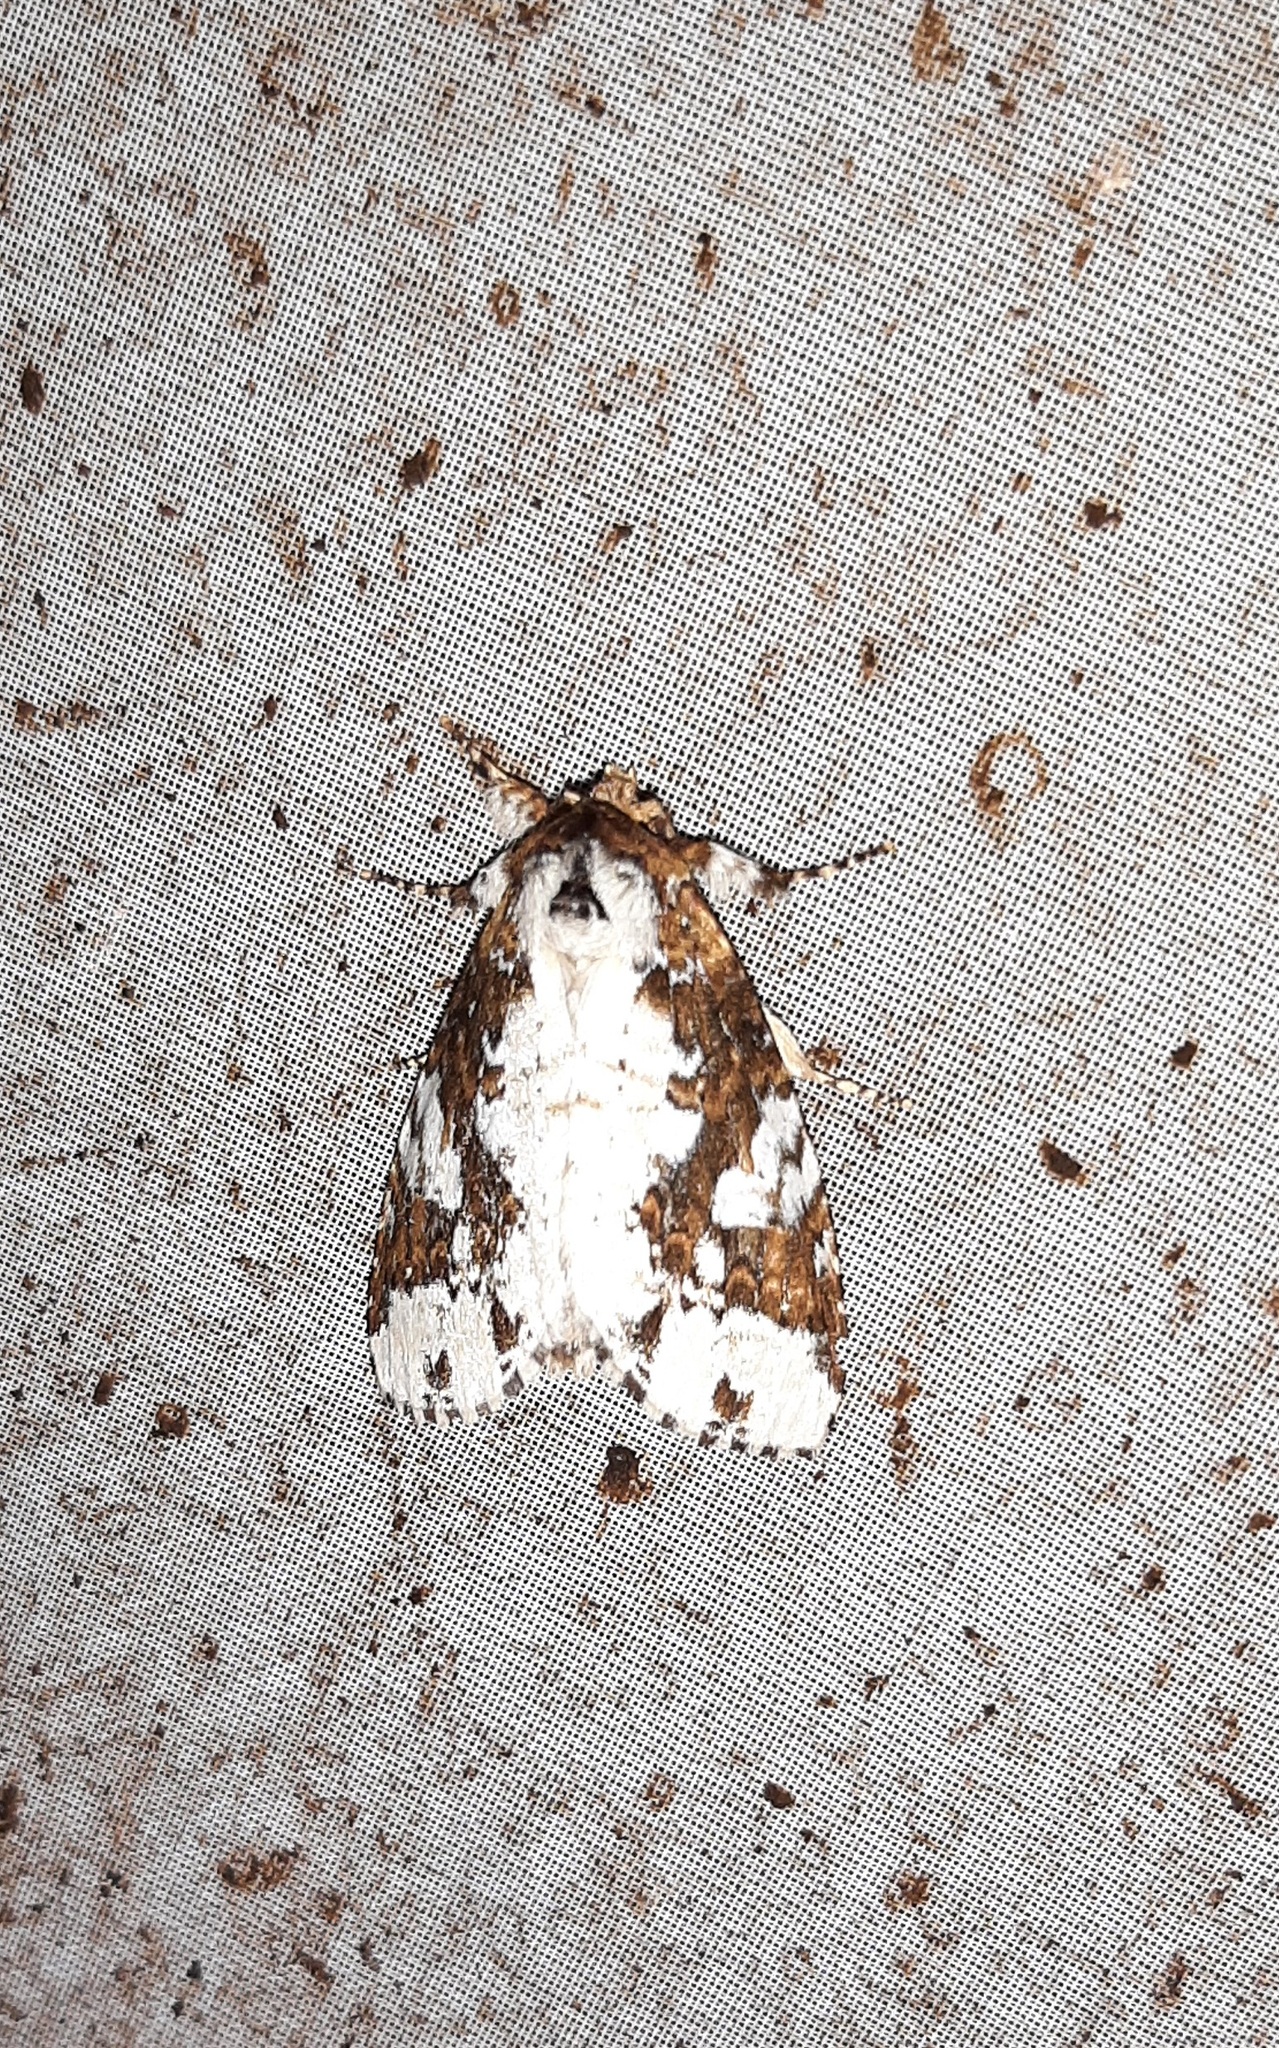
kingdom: Animalia
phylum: Arthropoda
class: Insecta
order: Lepidoptera
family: Notodontidae
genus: Disphragis
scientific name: Disphragis tharis
